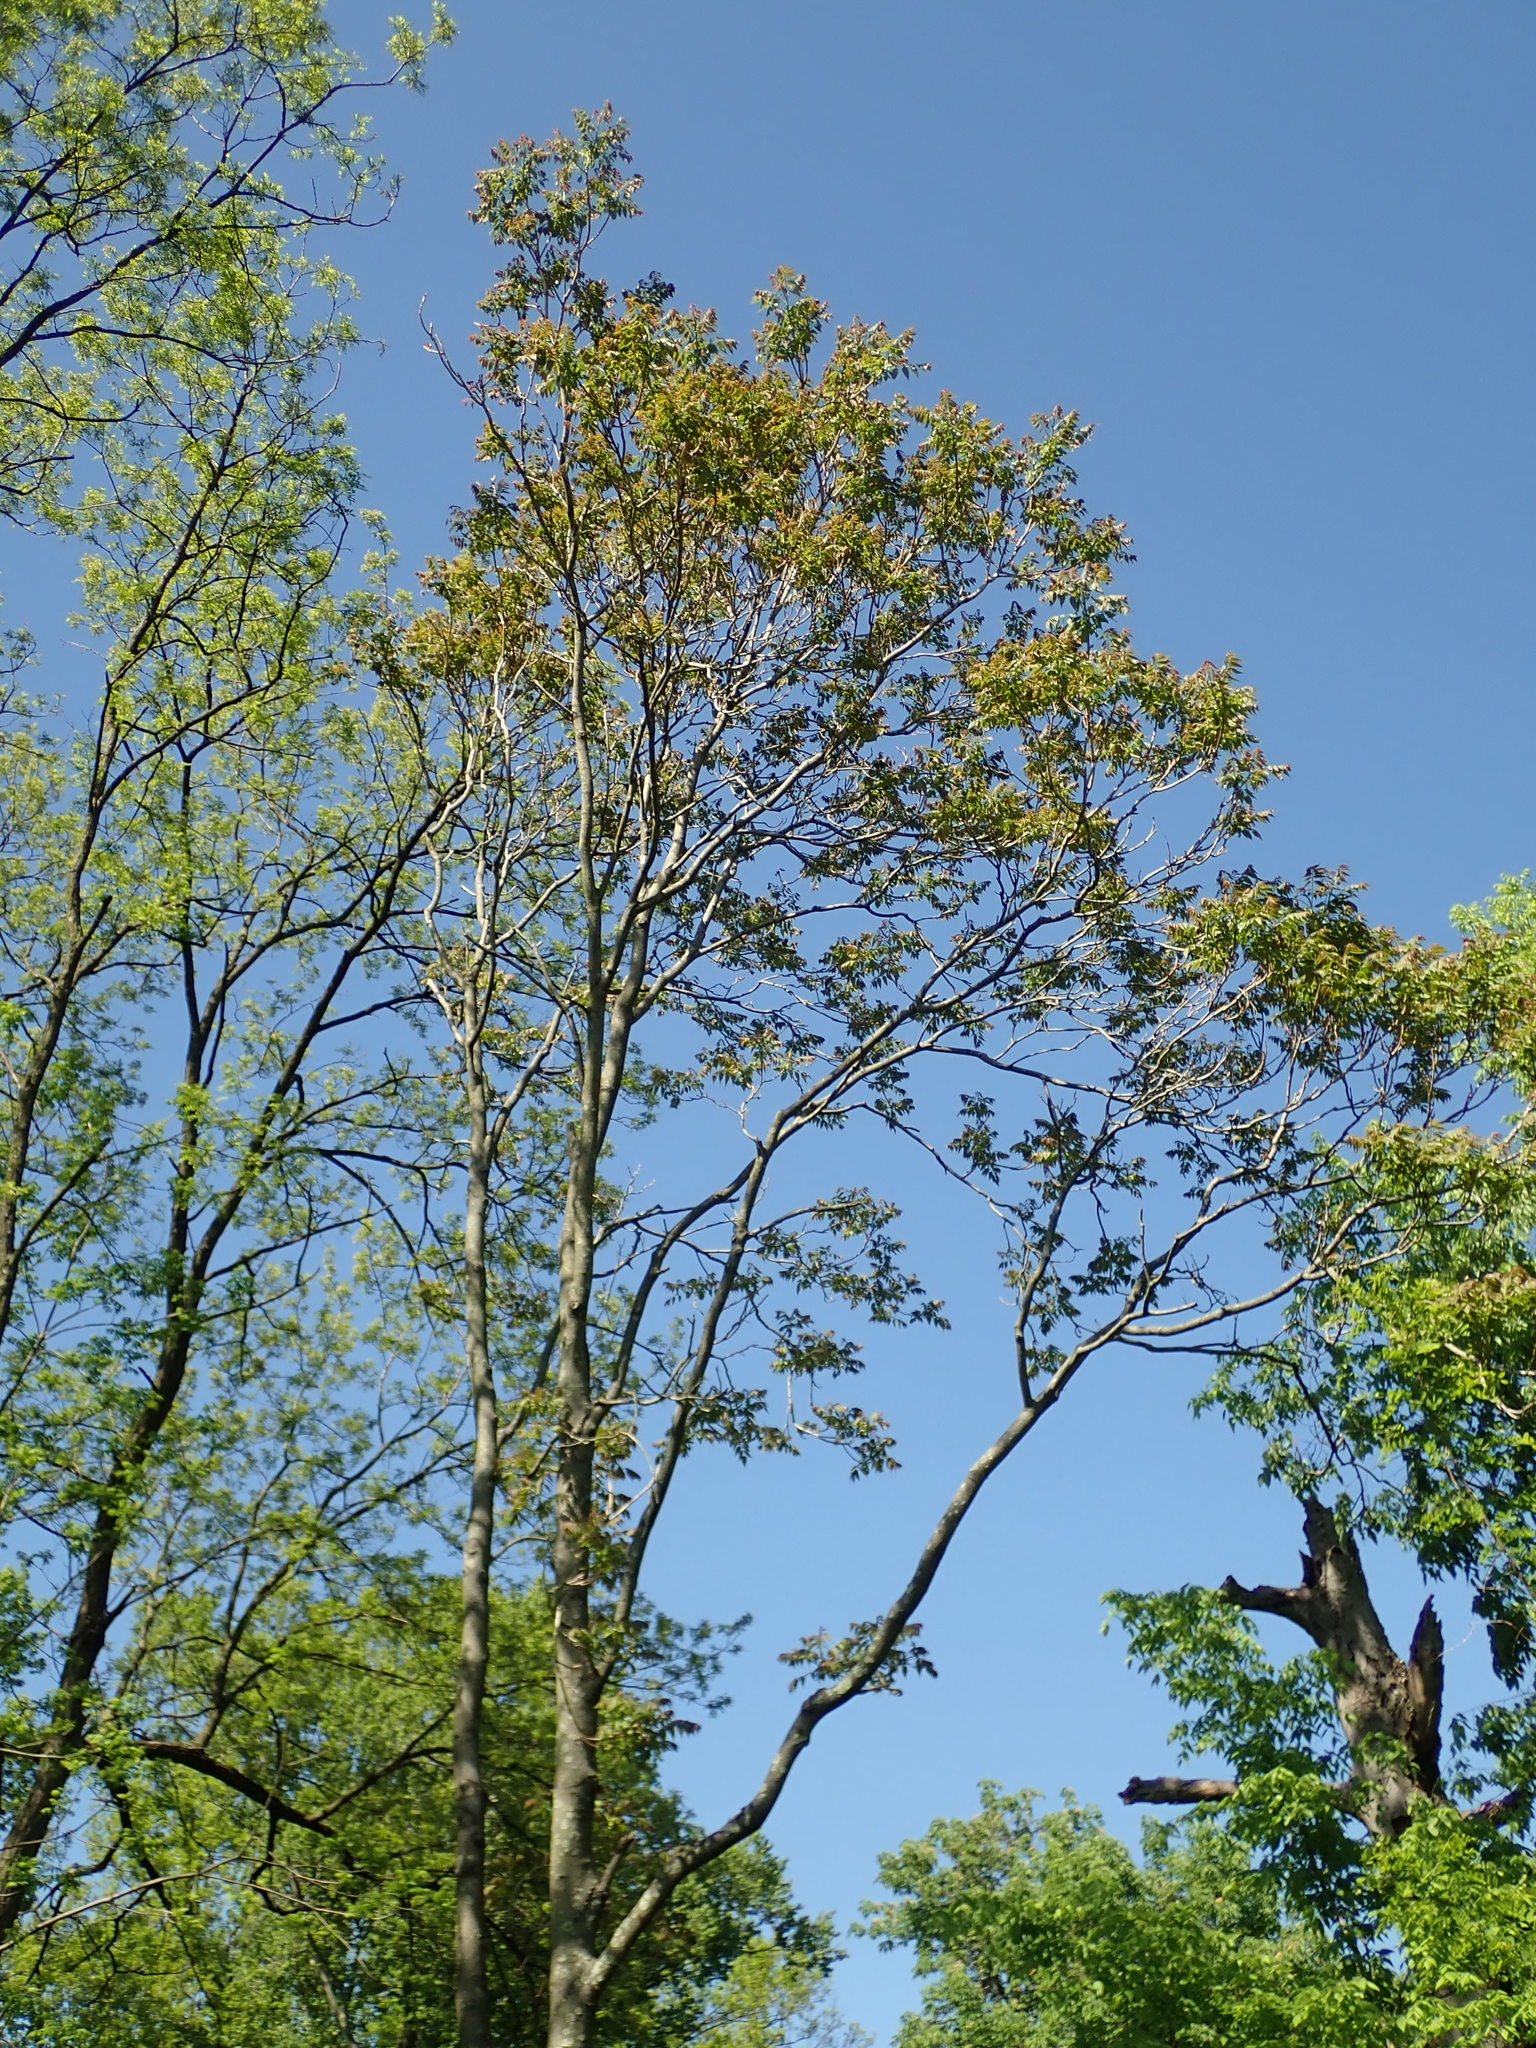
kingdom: Plantae
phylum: Tracheophyta
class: Magnoliopsida
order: Sapindales
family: Simaroubaceae
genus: Ailanthus
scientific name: Ailanthus altissima
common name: Tree-of-heaven
